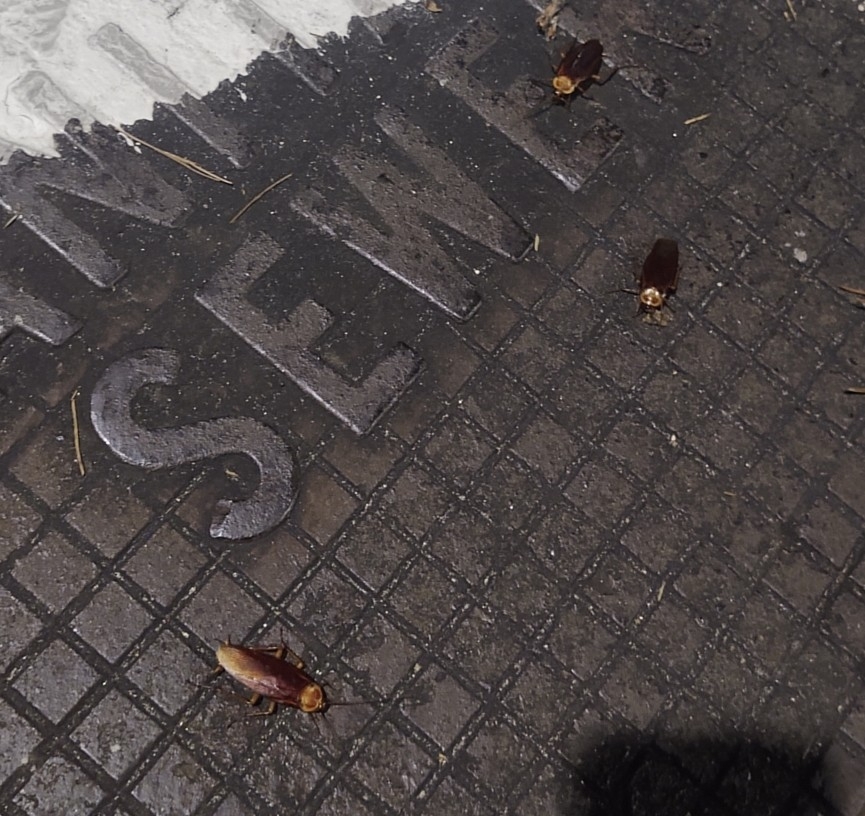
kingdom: Animalia
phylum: Arthropoda
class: Insecta
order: Blattodea
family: Blattidae
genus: Periplaneta
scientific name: Periplaneta americana
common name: American cockroach
